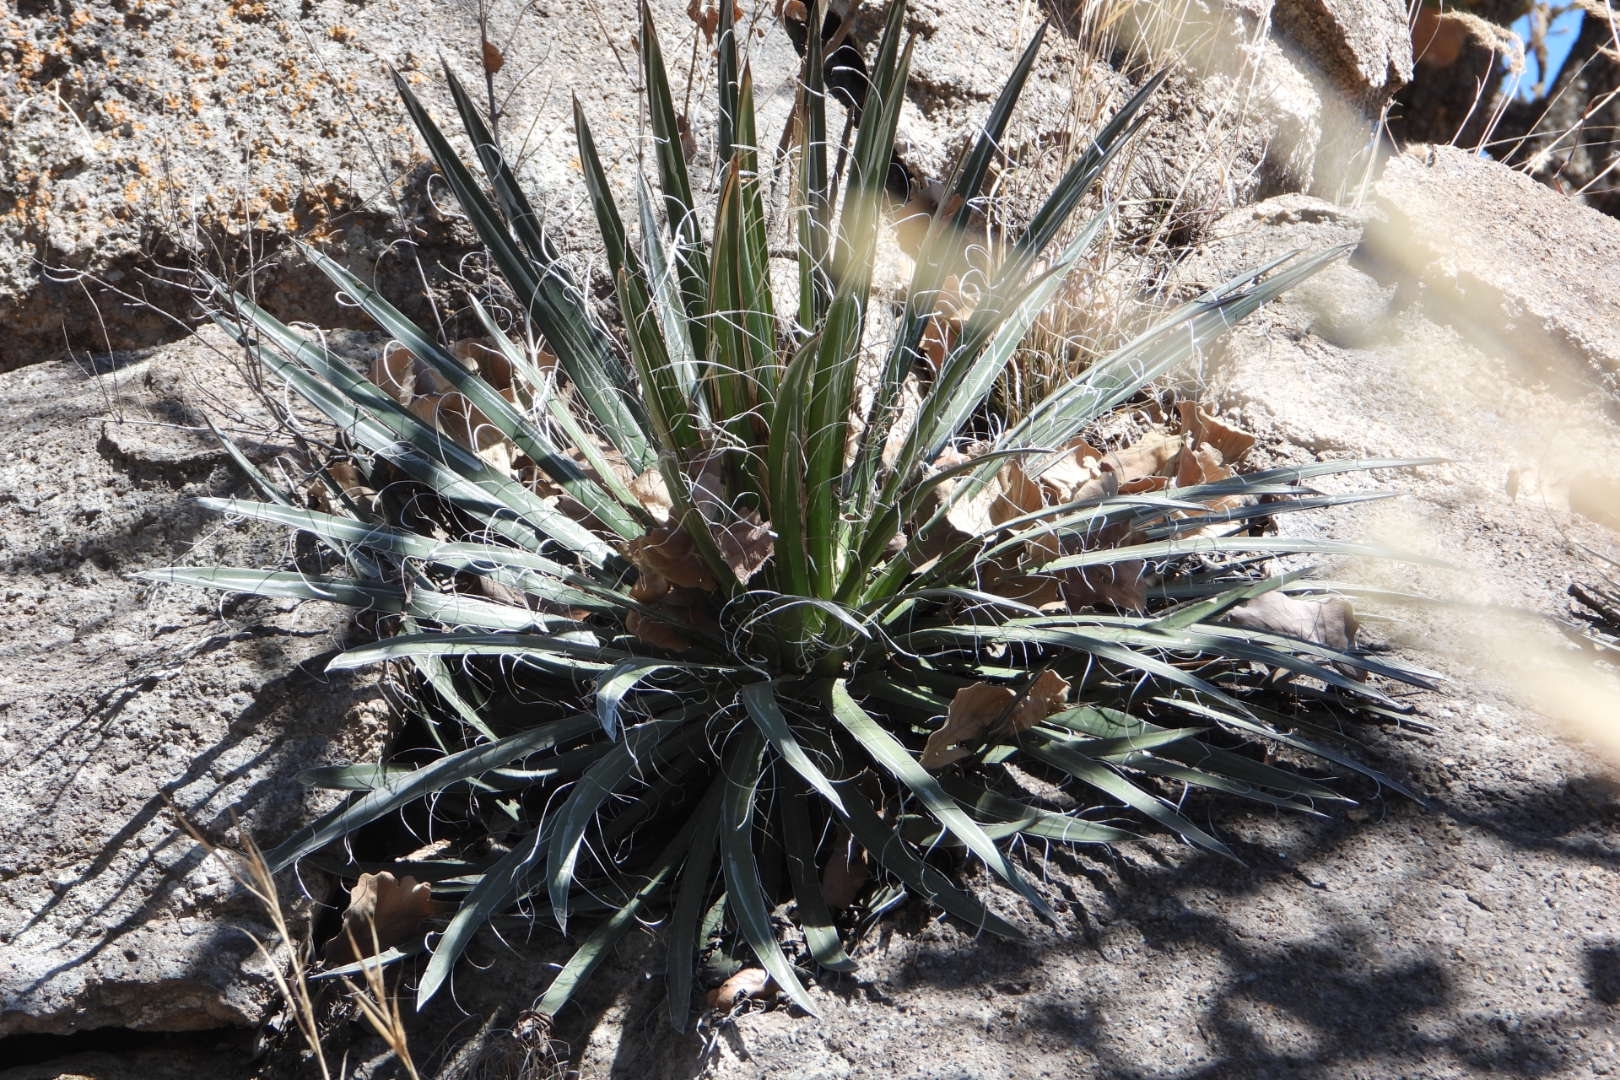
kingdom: Plantae
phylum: Tracheophyta
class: Liliopsida
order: Asparagales
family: Asparagaceae
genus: Agave
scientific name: Agave schidigera
